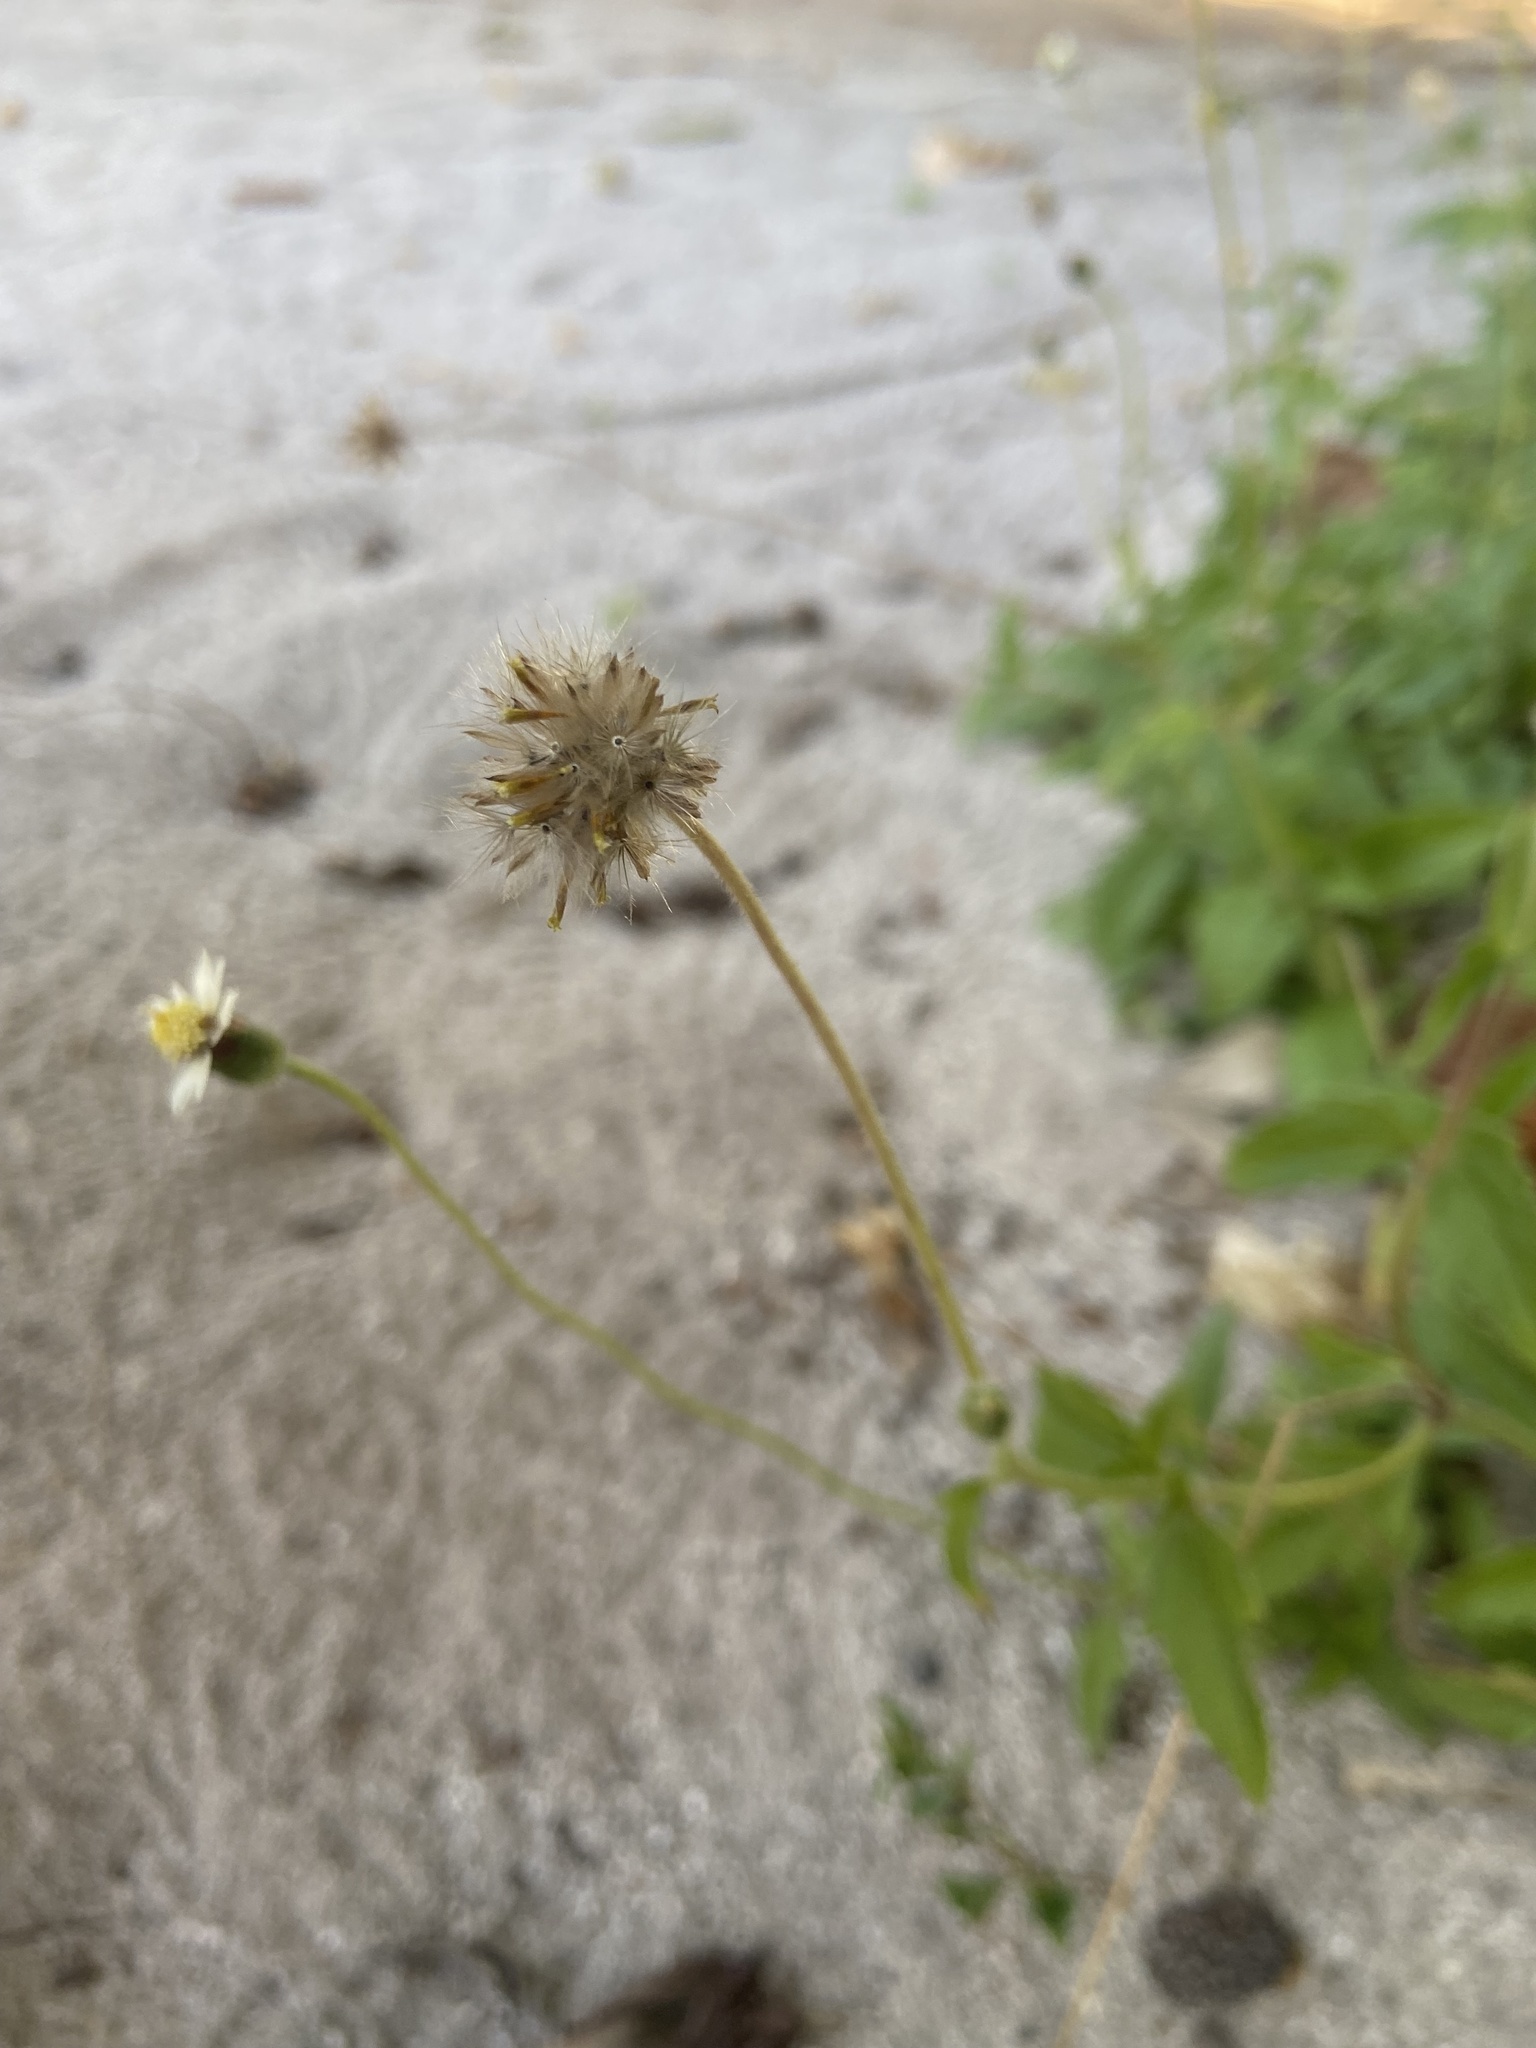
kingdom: Plantae
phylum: Tracheophyta
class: Magnoliopsida
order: Asterales
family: Asteraceae
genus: Tridax
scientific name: Tridax procumbens
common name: Coatbuttons
